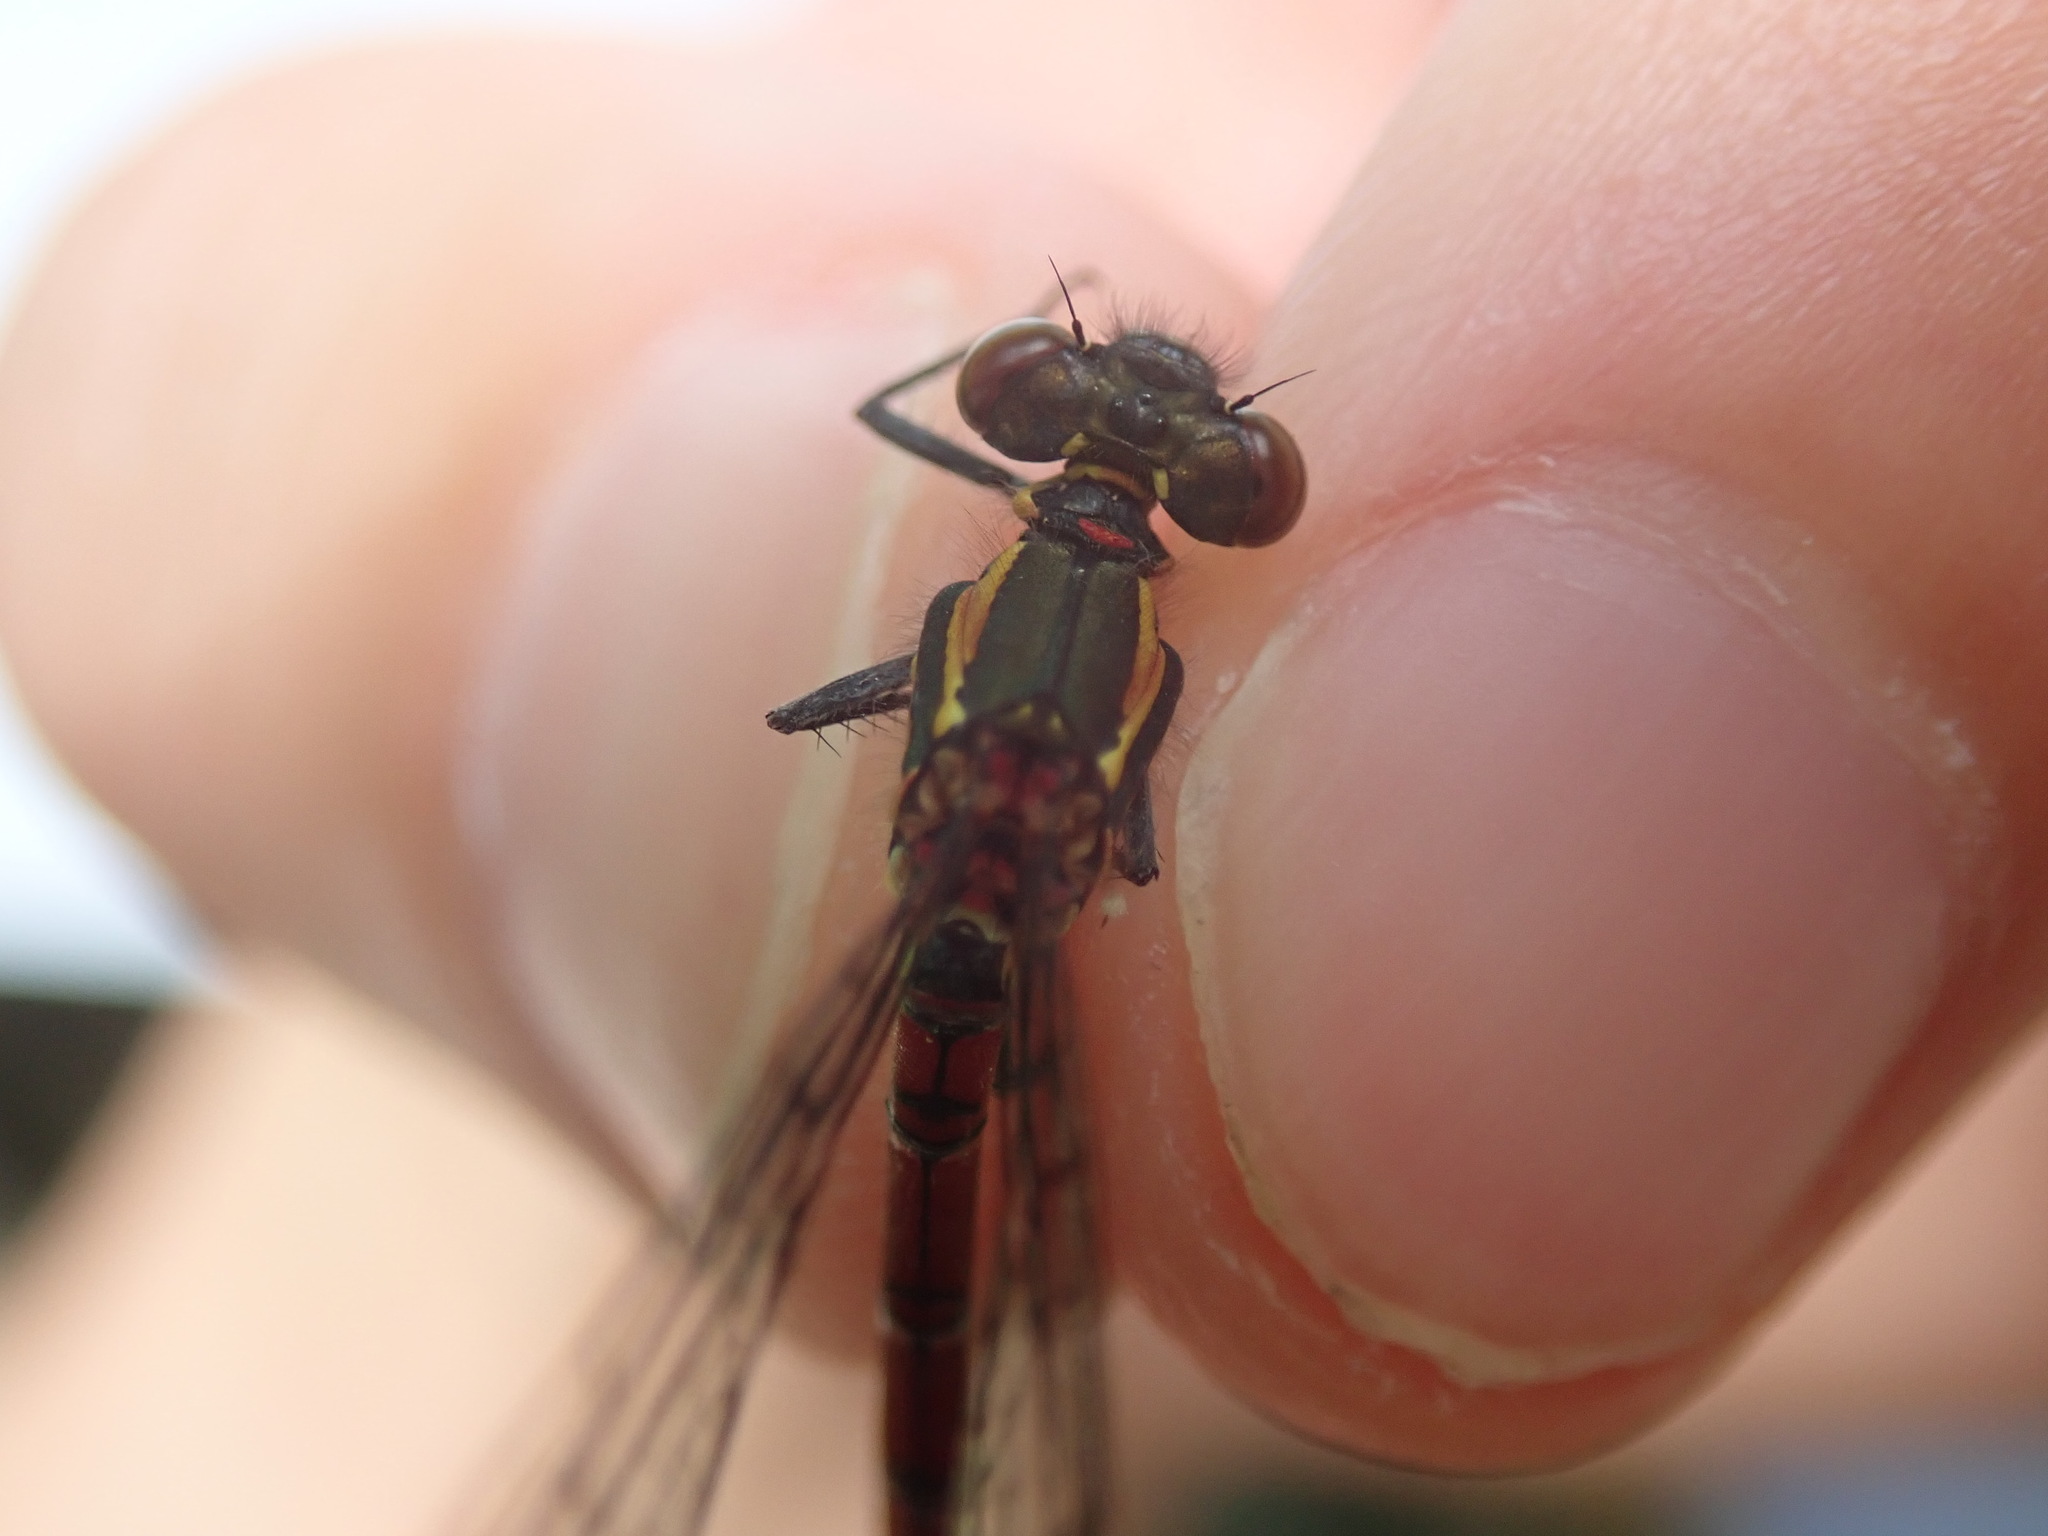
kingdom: Animalia
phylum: Arthropoda
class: Insecta
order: Odonata
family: Coenagrionidae
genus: Pyrrhosoma
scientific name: Pyrrhosoma nymphula
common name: Large red damsel
